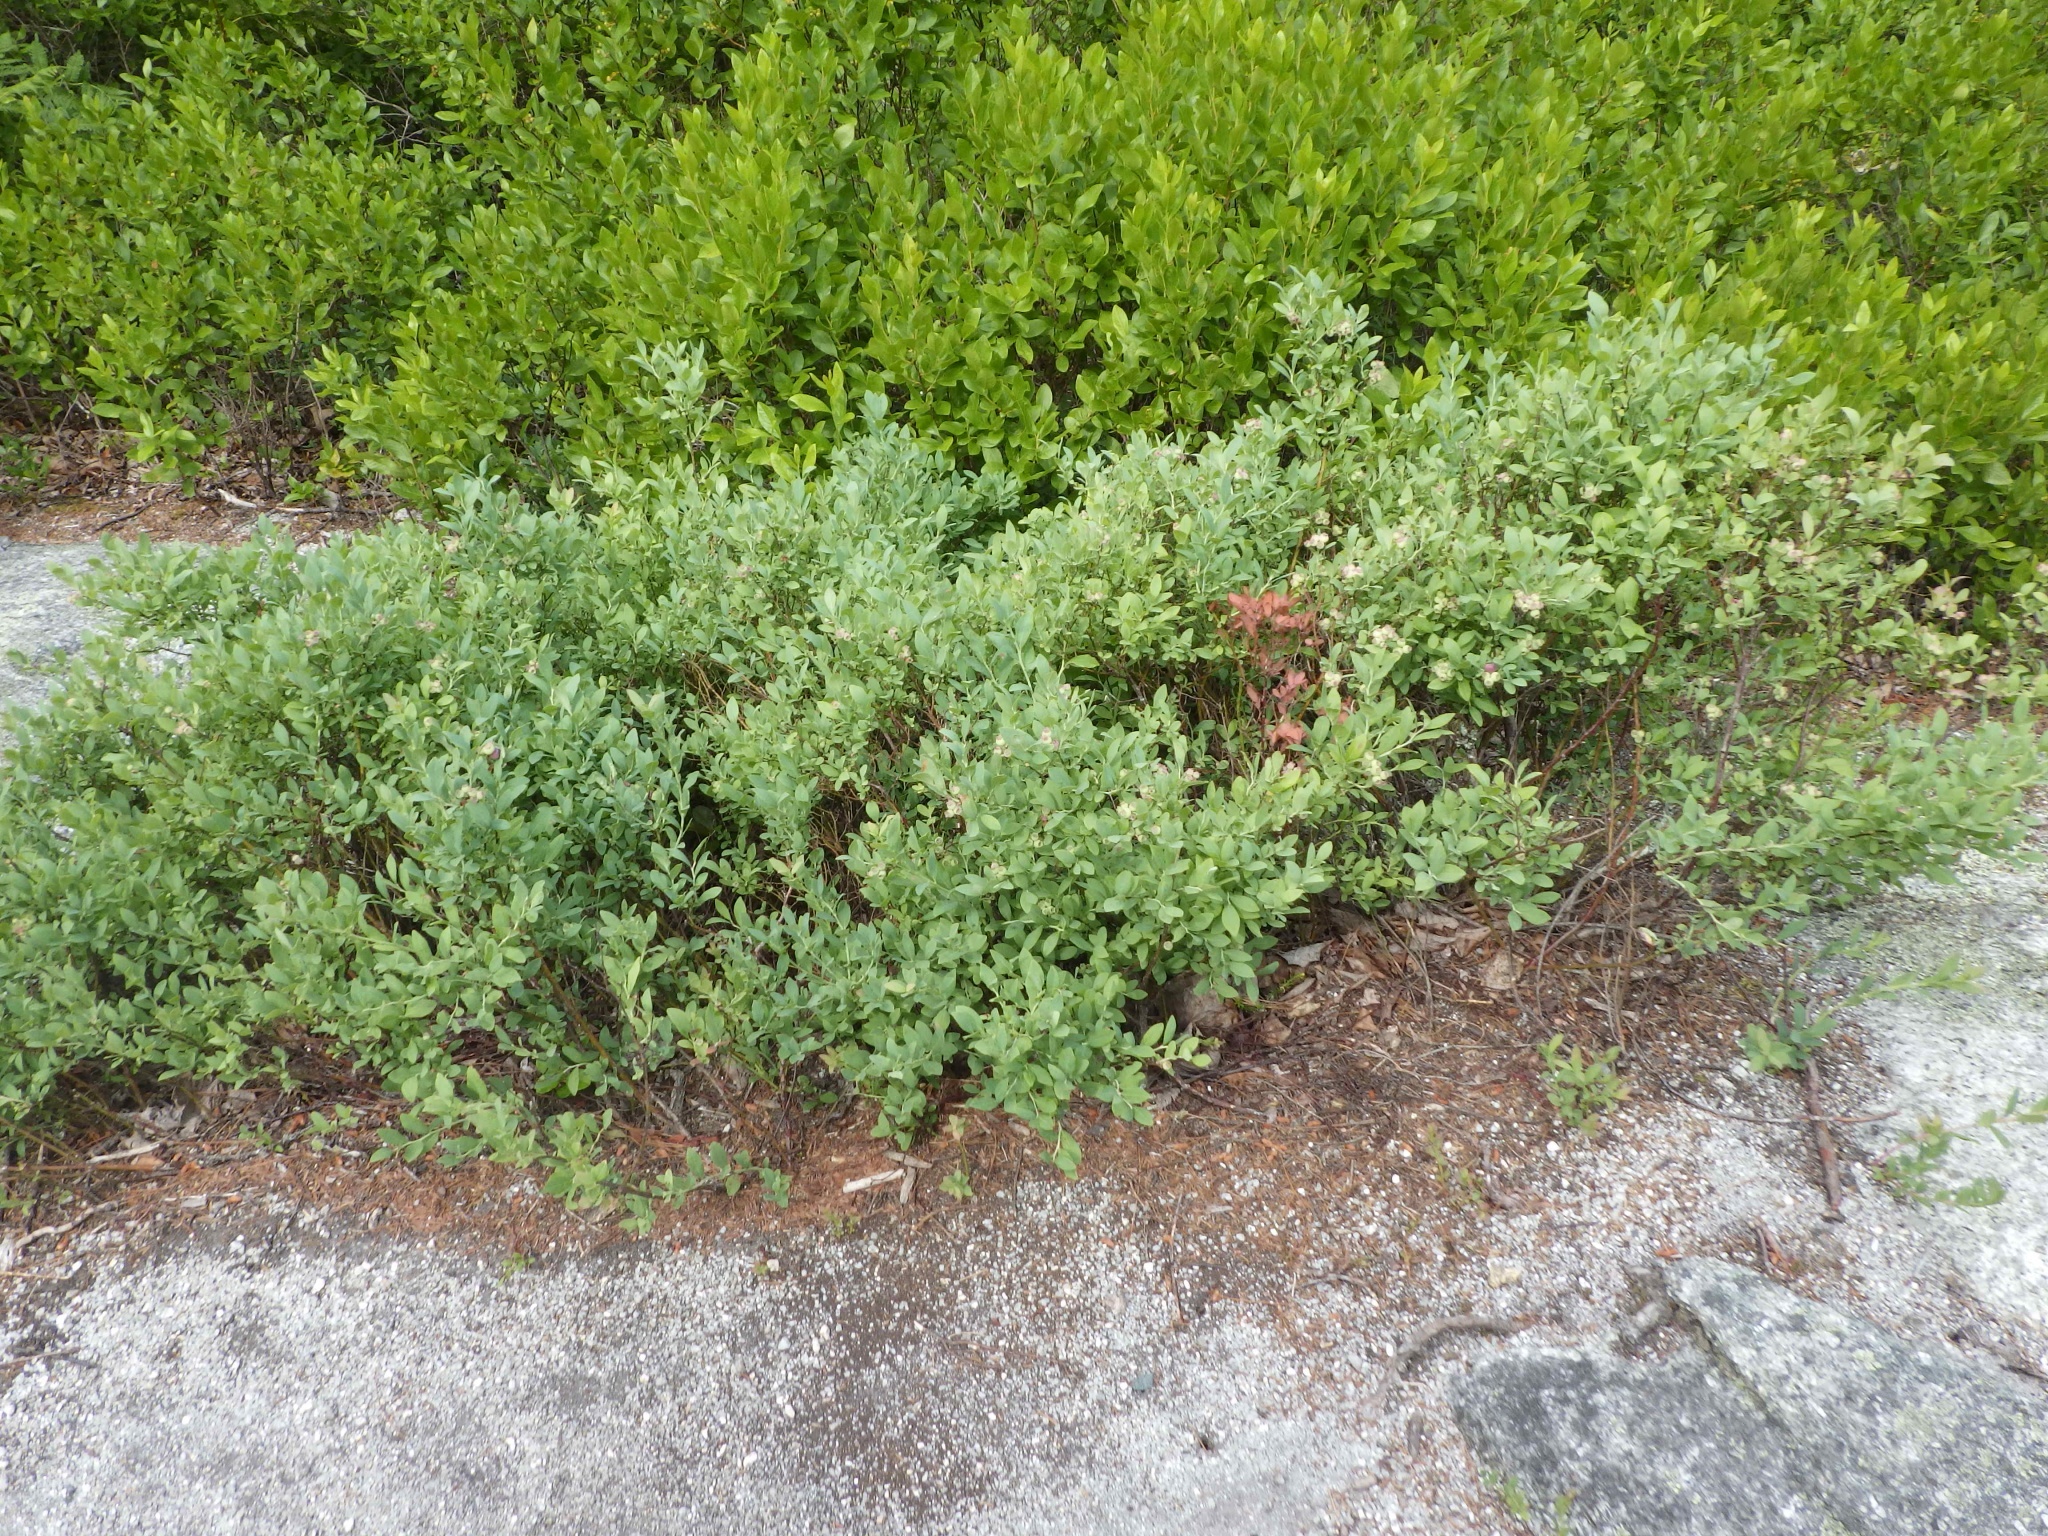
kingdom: Plantae
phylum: Tracheophyta
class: Magnoliopsida
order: Ericales
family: Ericaceae
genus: Vaccinium
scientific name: Vaccinium angustifolium
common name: Early lowbush blueberry
